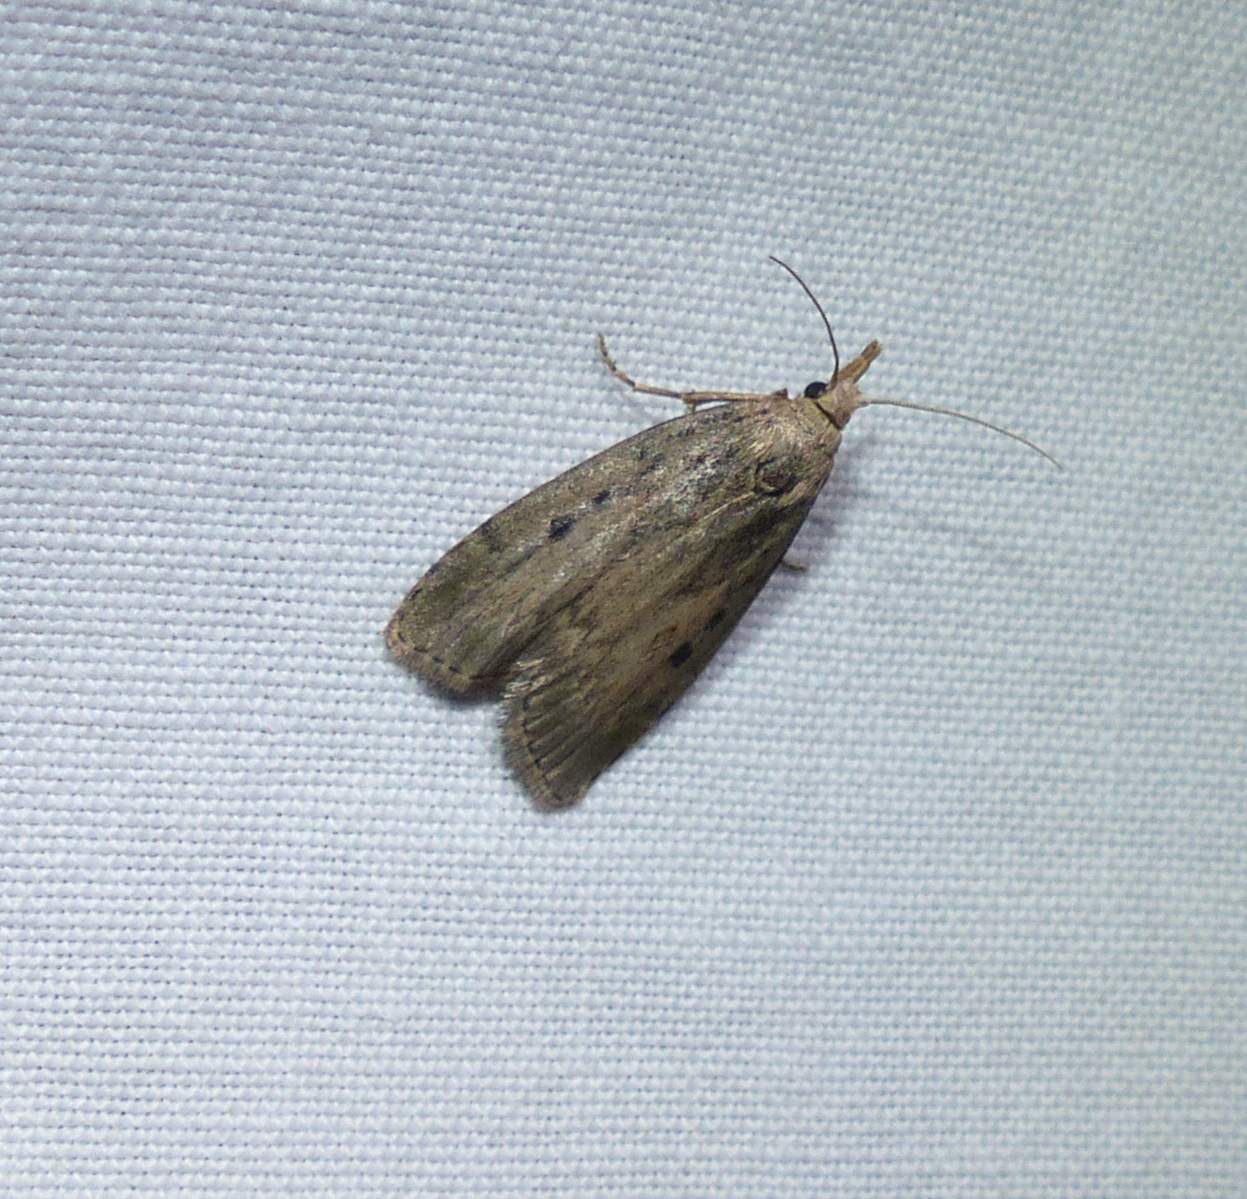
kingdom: Animalia
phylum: Arthropoda
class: Insecta
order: Lepidoptera
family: Pyralidae
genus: Aphomia
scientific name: Aphomia sociella
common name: Bee moth
